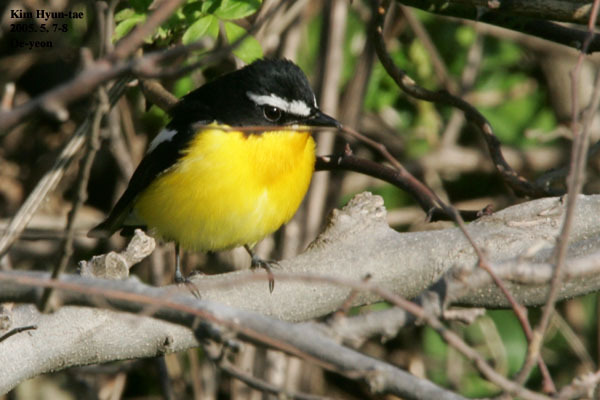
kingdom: Animalia
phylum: Chordata
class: Aves
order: Passeriformes
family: Muscicapidae
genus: Ficedula
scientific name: Ficedula zanthopygia
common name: Yellow-rumped flycatcher
